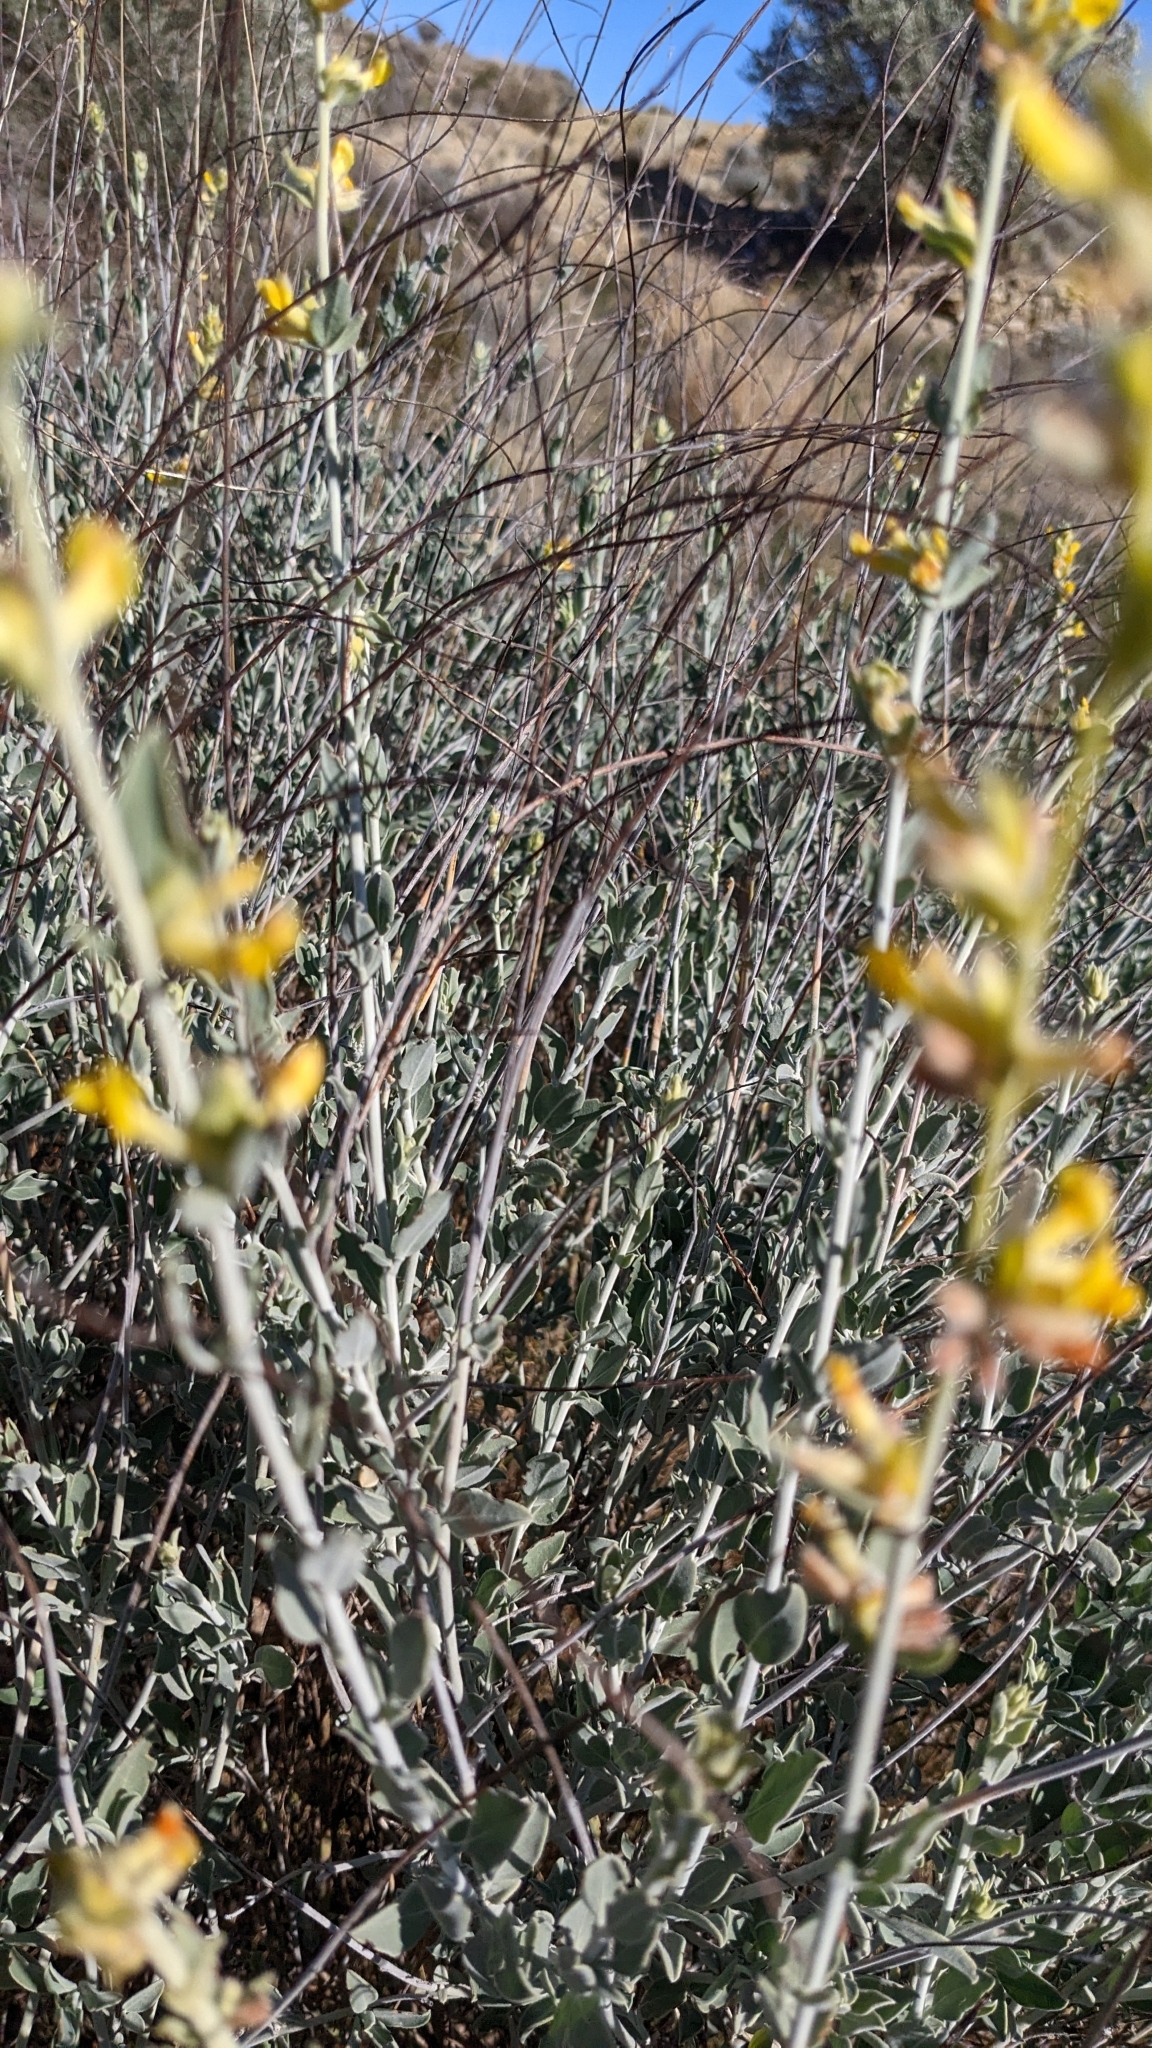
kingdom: Plantae
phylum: Tracheophyta
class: Magnoliopsida
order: Fabales
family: Fabaceae
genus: Anthyllis
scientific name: Anthyllis cytisoides
